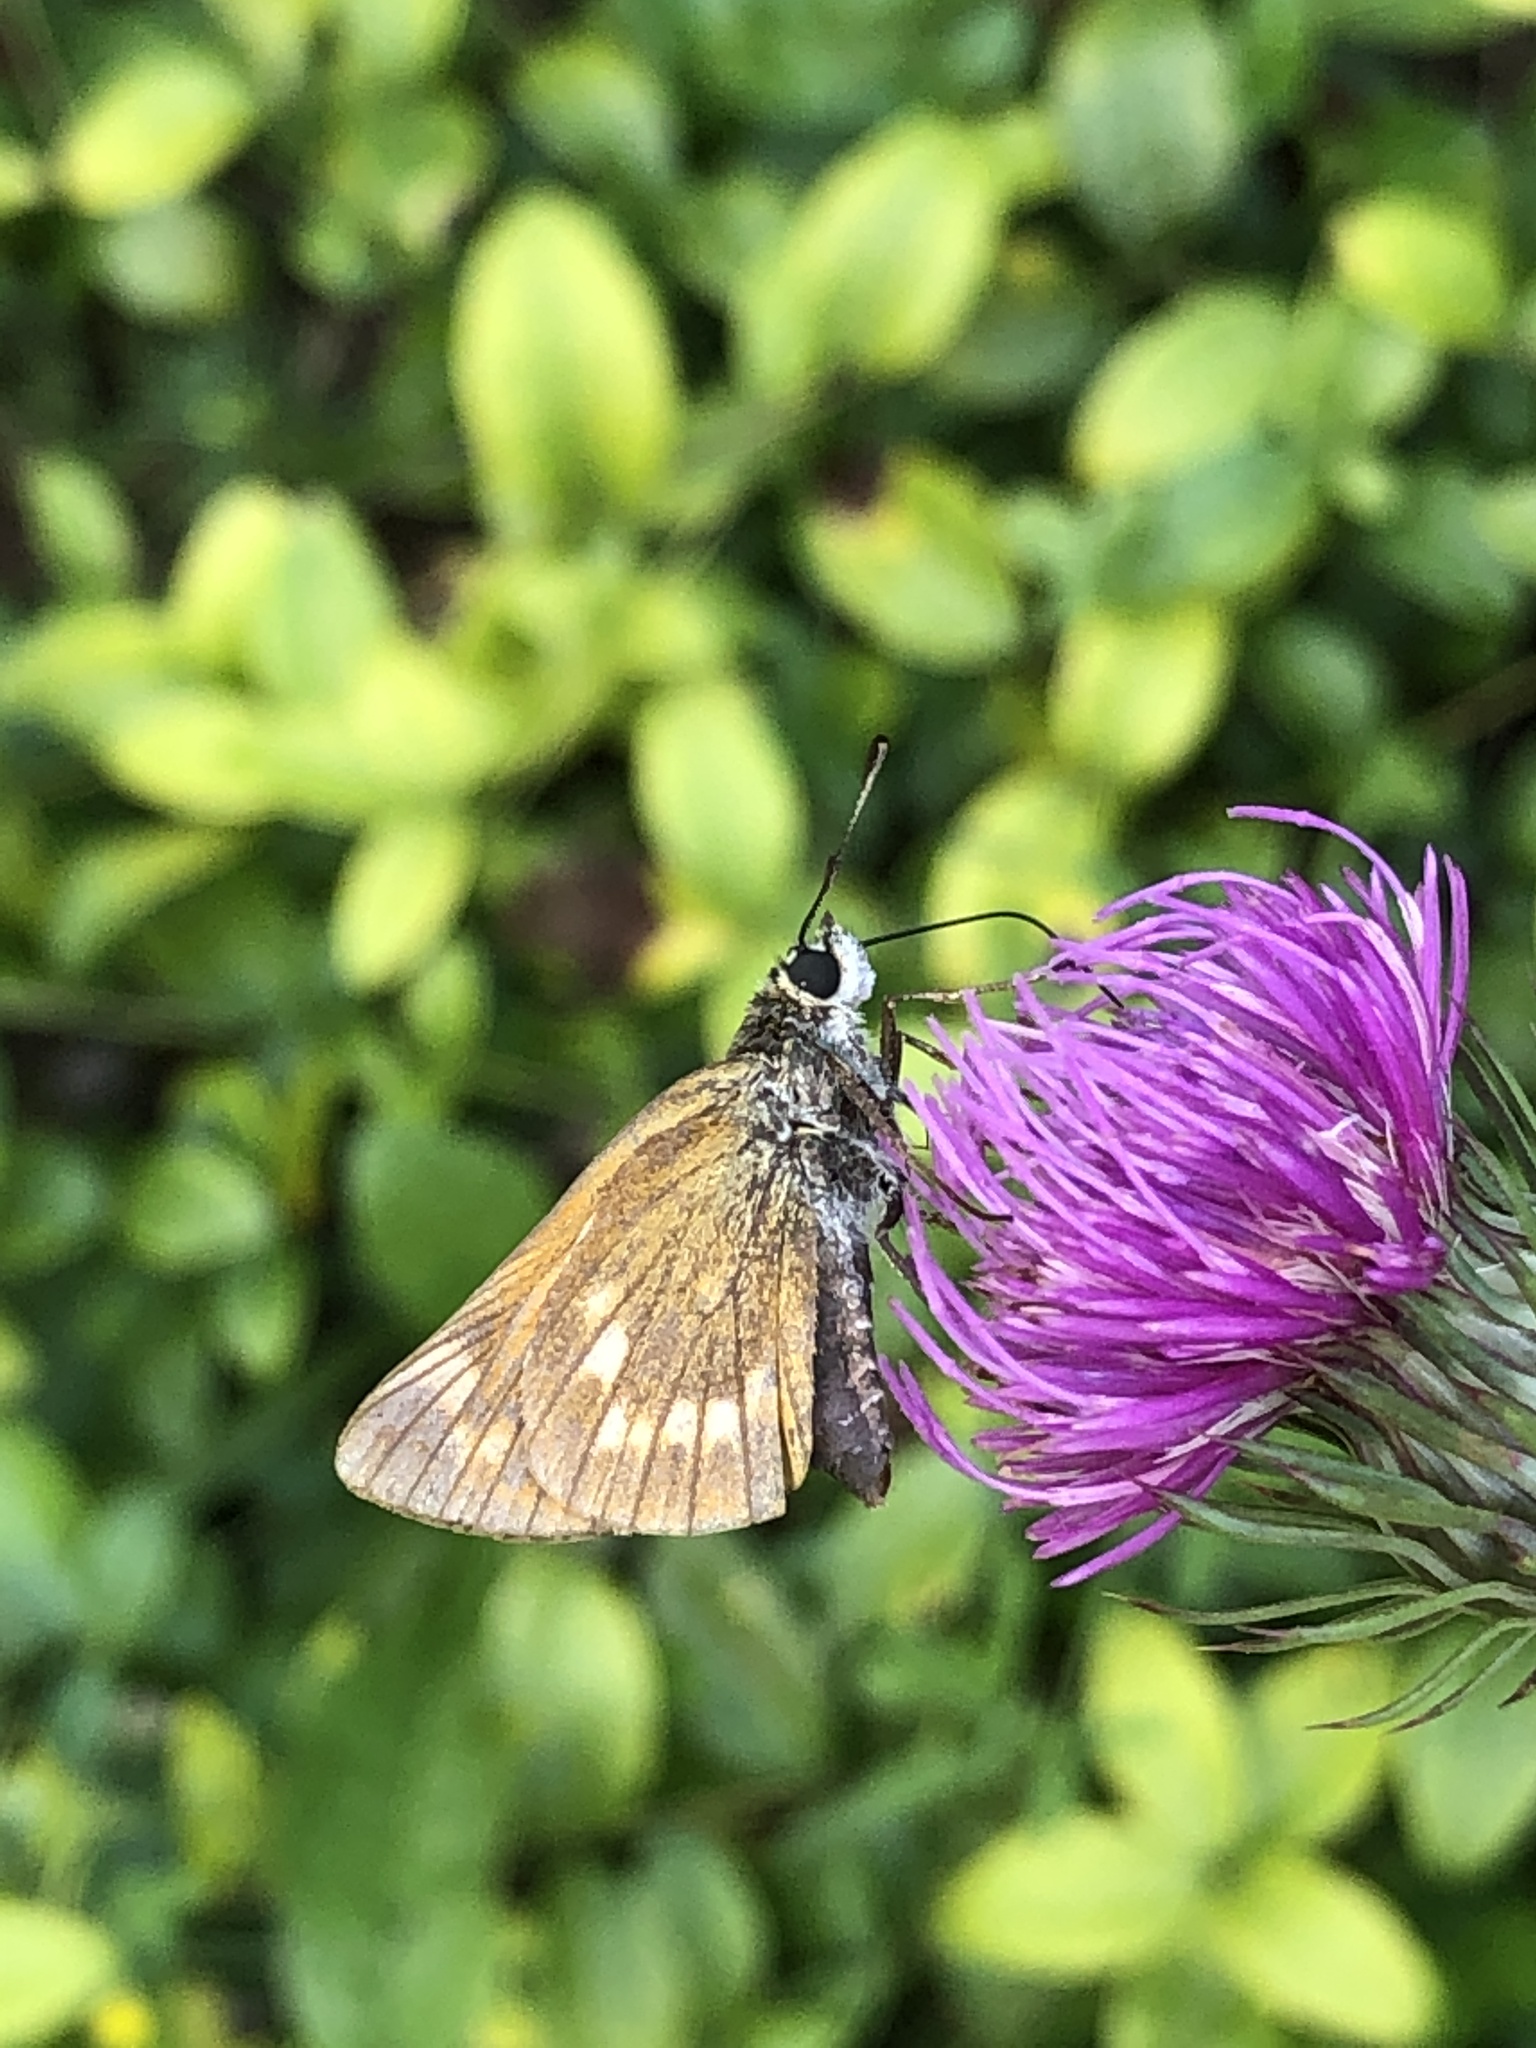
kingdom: Animalia
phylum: Arthropoda
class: Insecta
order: Lepidoptera
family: Hesperiidae
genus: Ochlodes
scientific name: Ochlodes venata
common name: Large skipper
